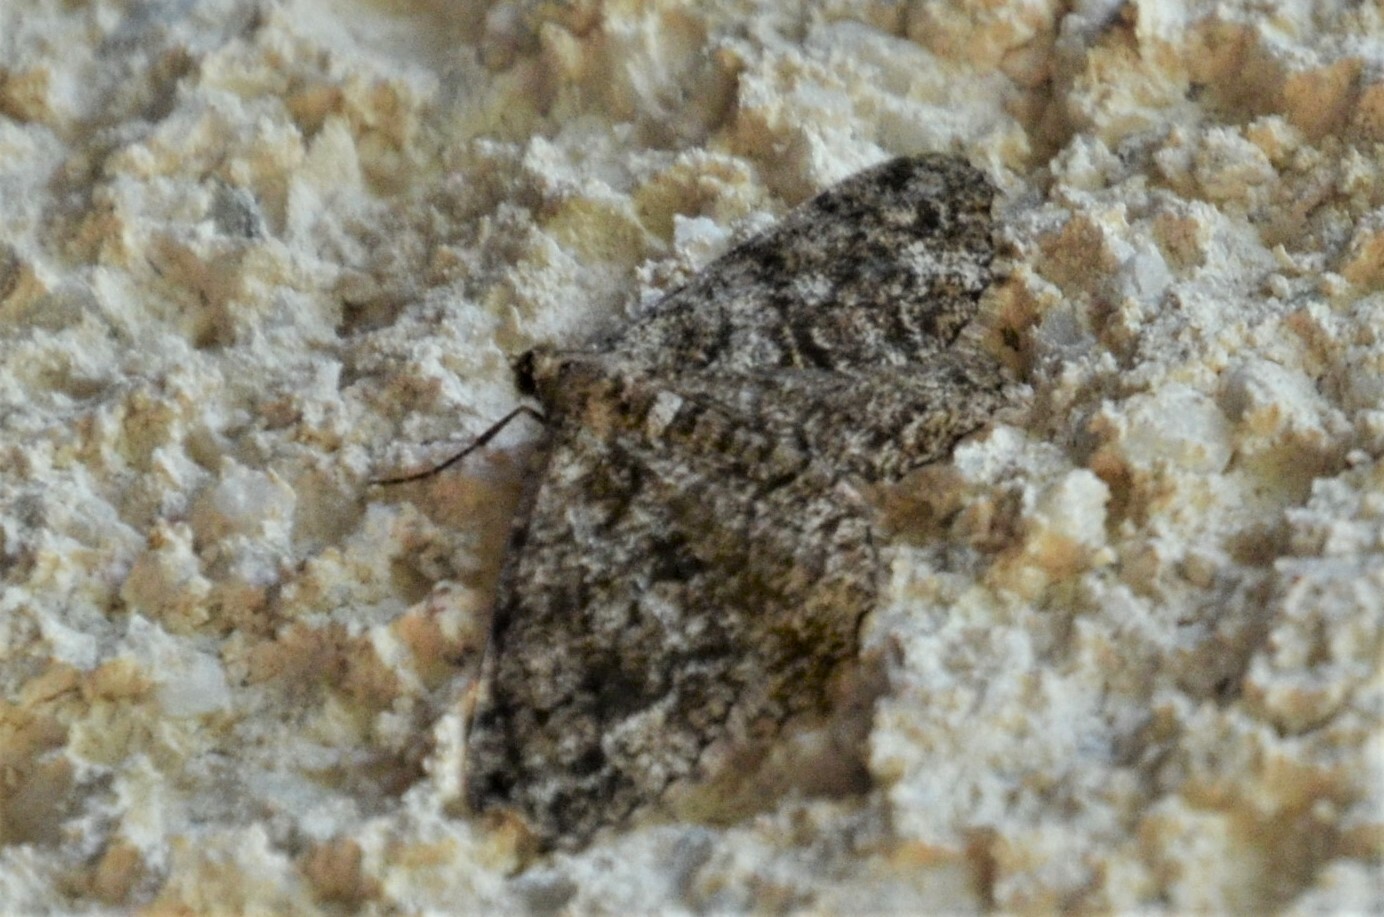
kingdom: Animalia
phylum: Arthropoda
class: Insecta
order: Lepidoptera
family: Geometridae
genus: Peribatodes
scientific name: Peribatodes secundaria
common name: Feathered beauty
